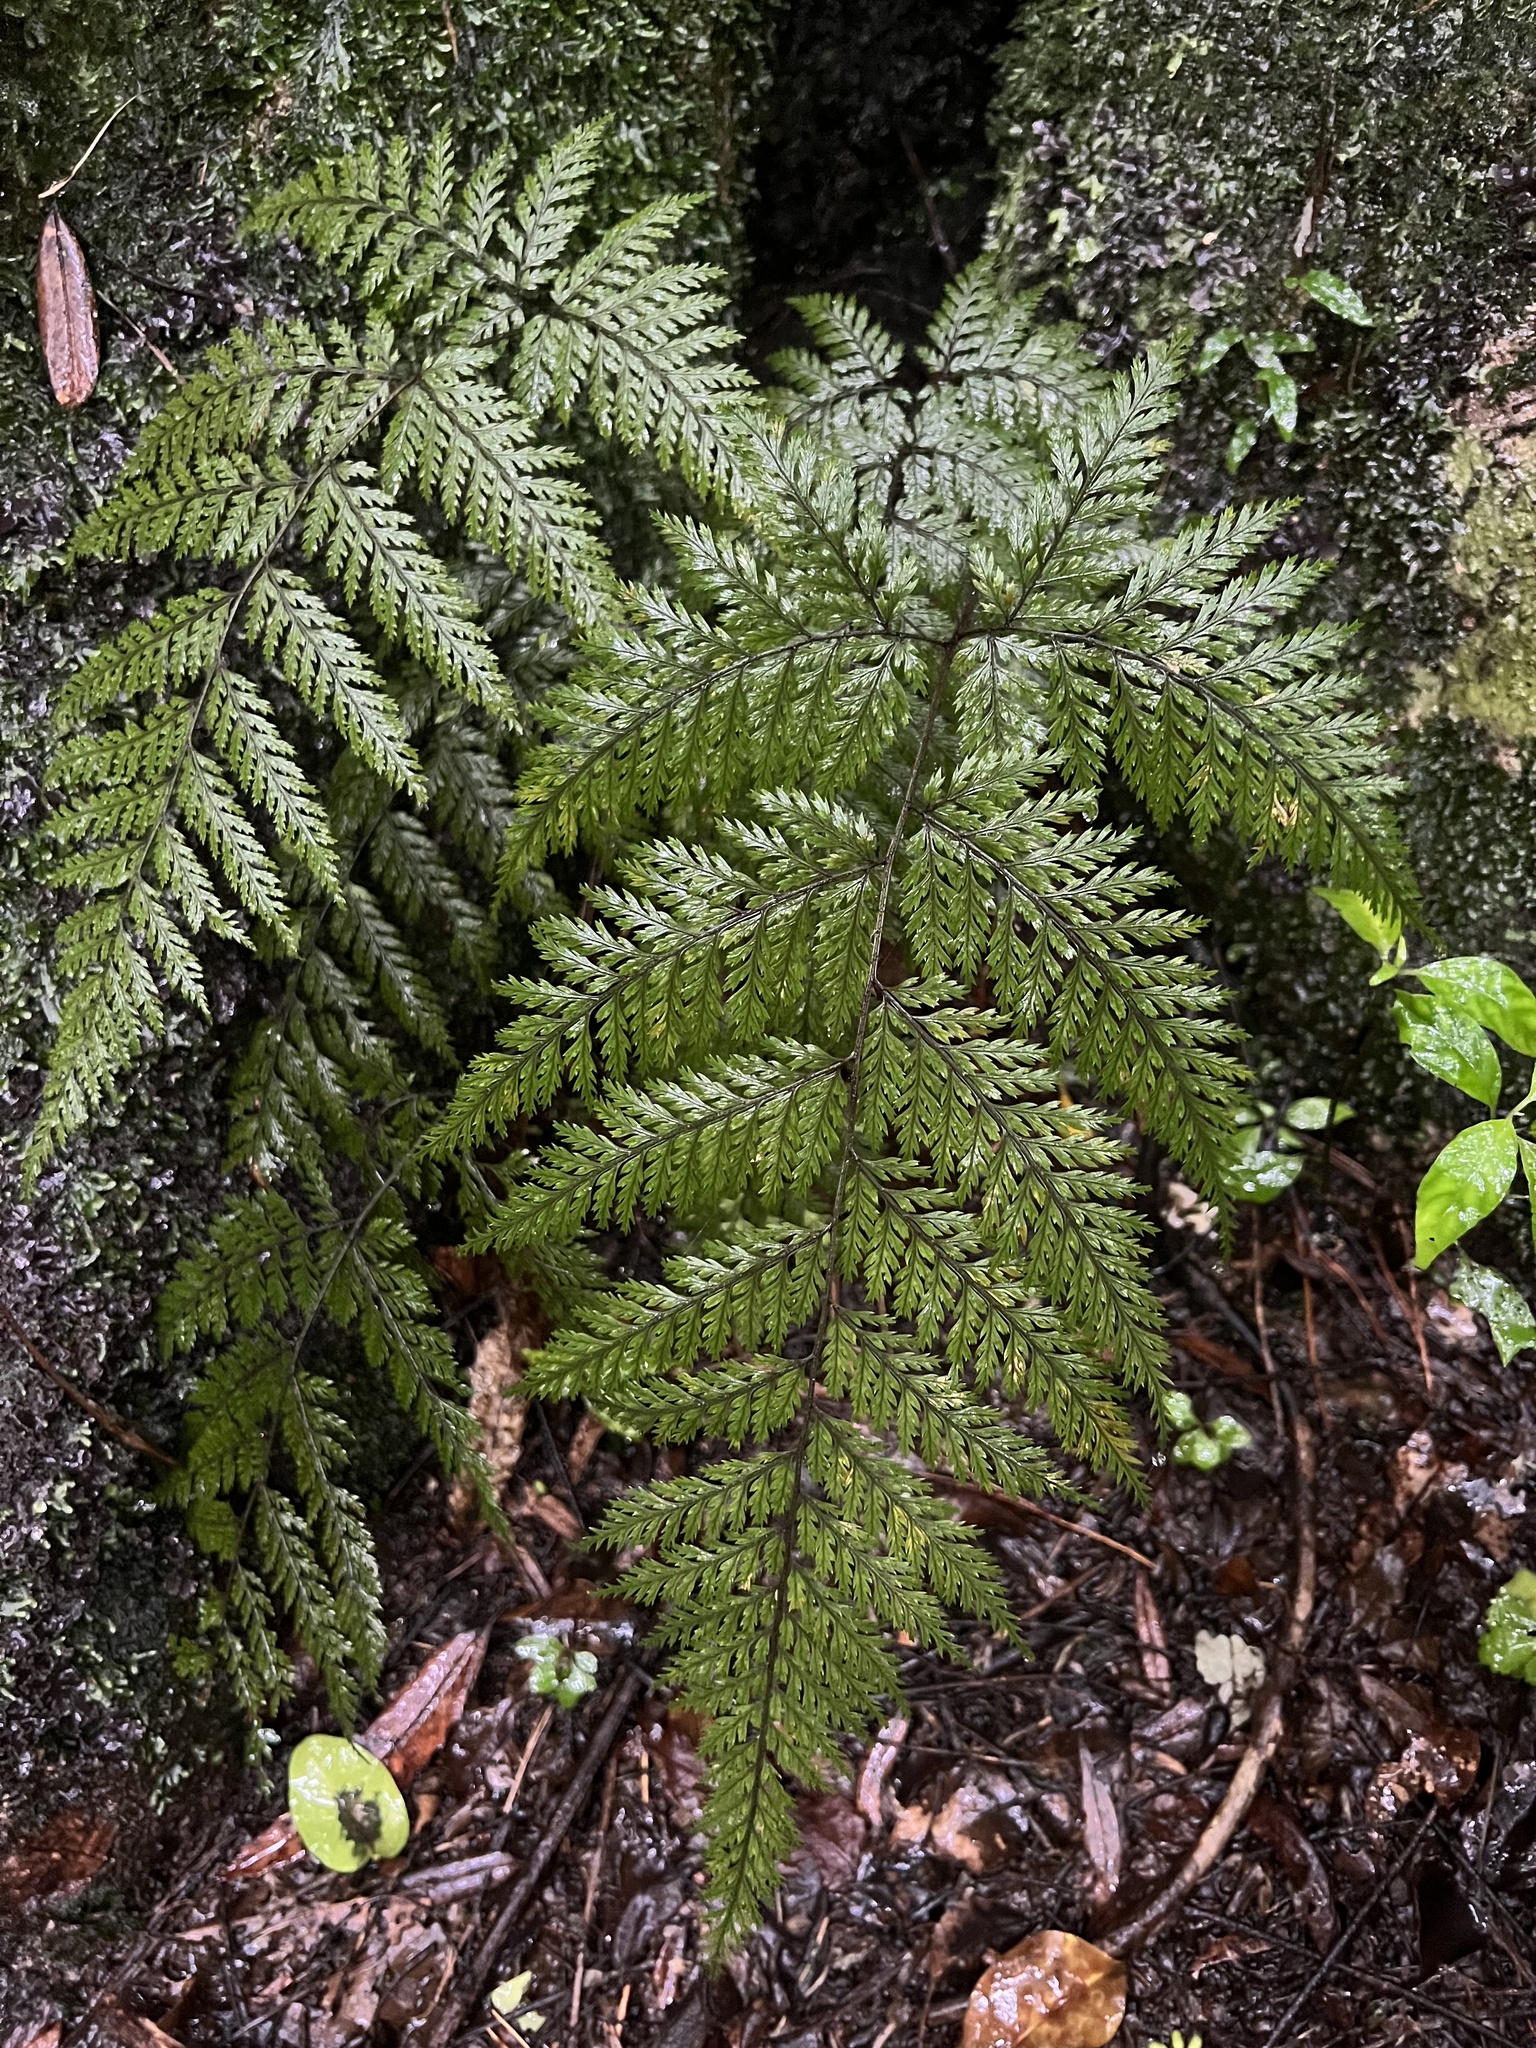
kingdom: Plantae
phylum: Tracheophyta
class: Polypodiopsida
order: Polypodiales
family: Dryopteridaceae
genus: Lastreopsis
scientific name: Lastreopsis hispida
